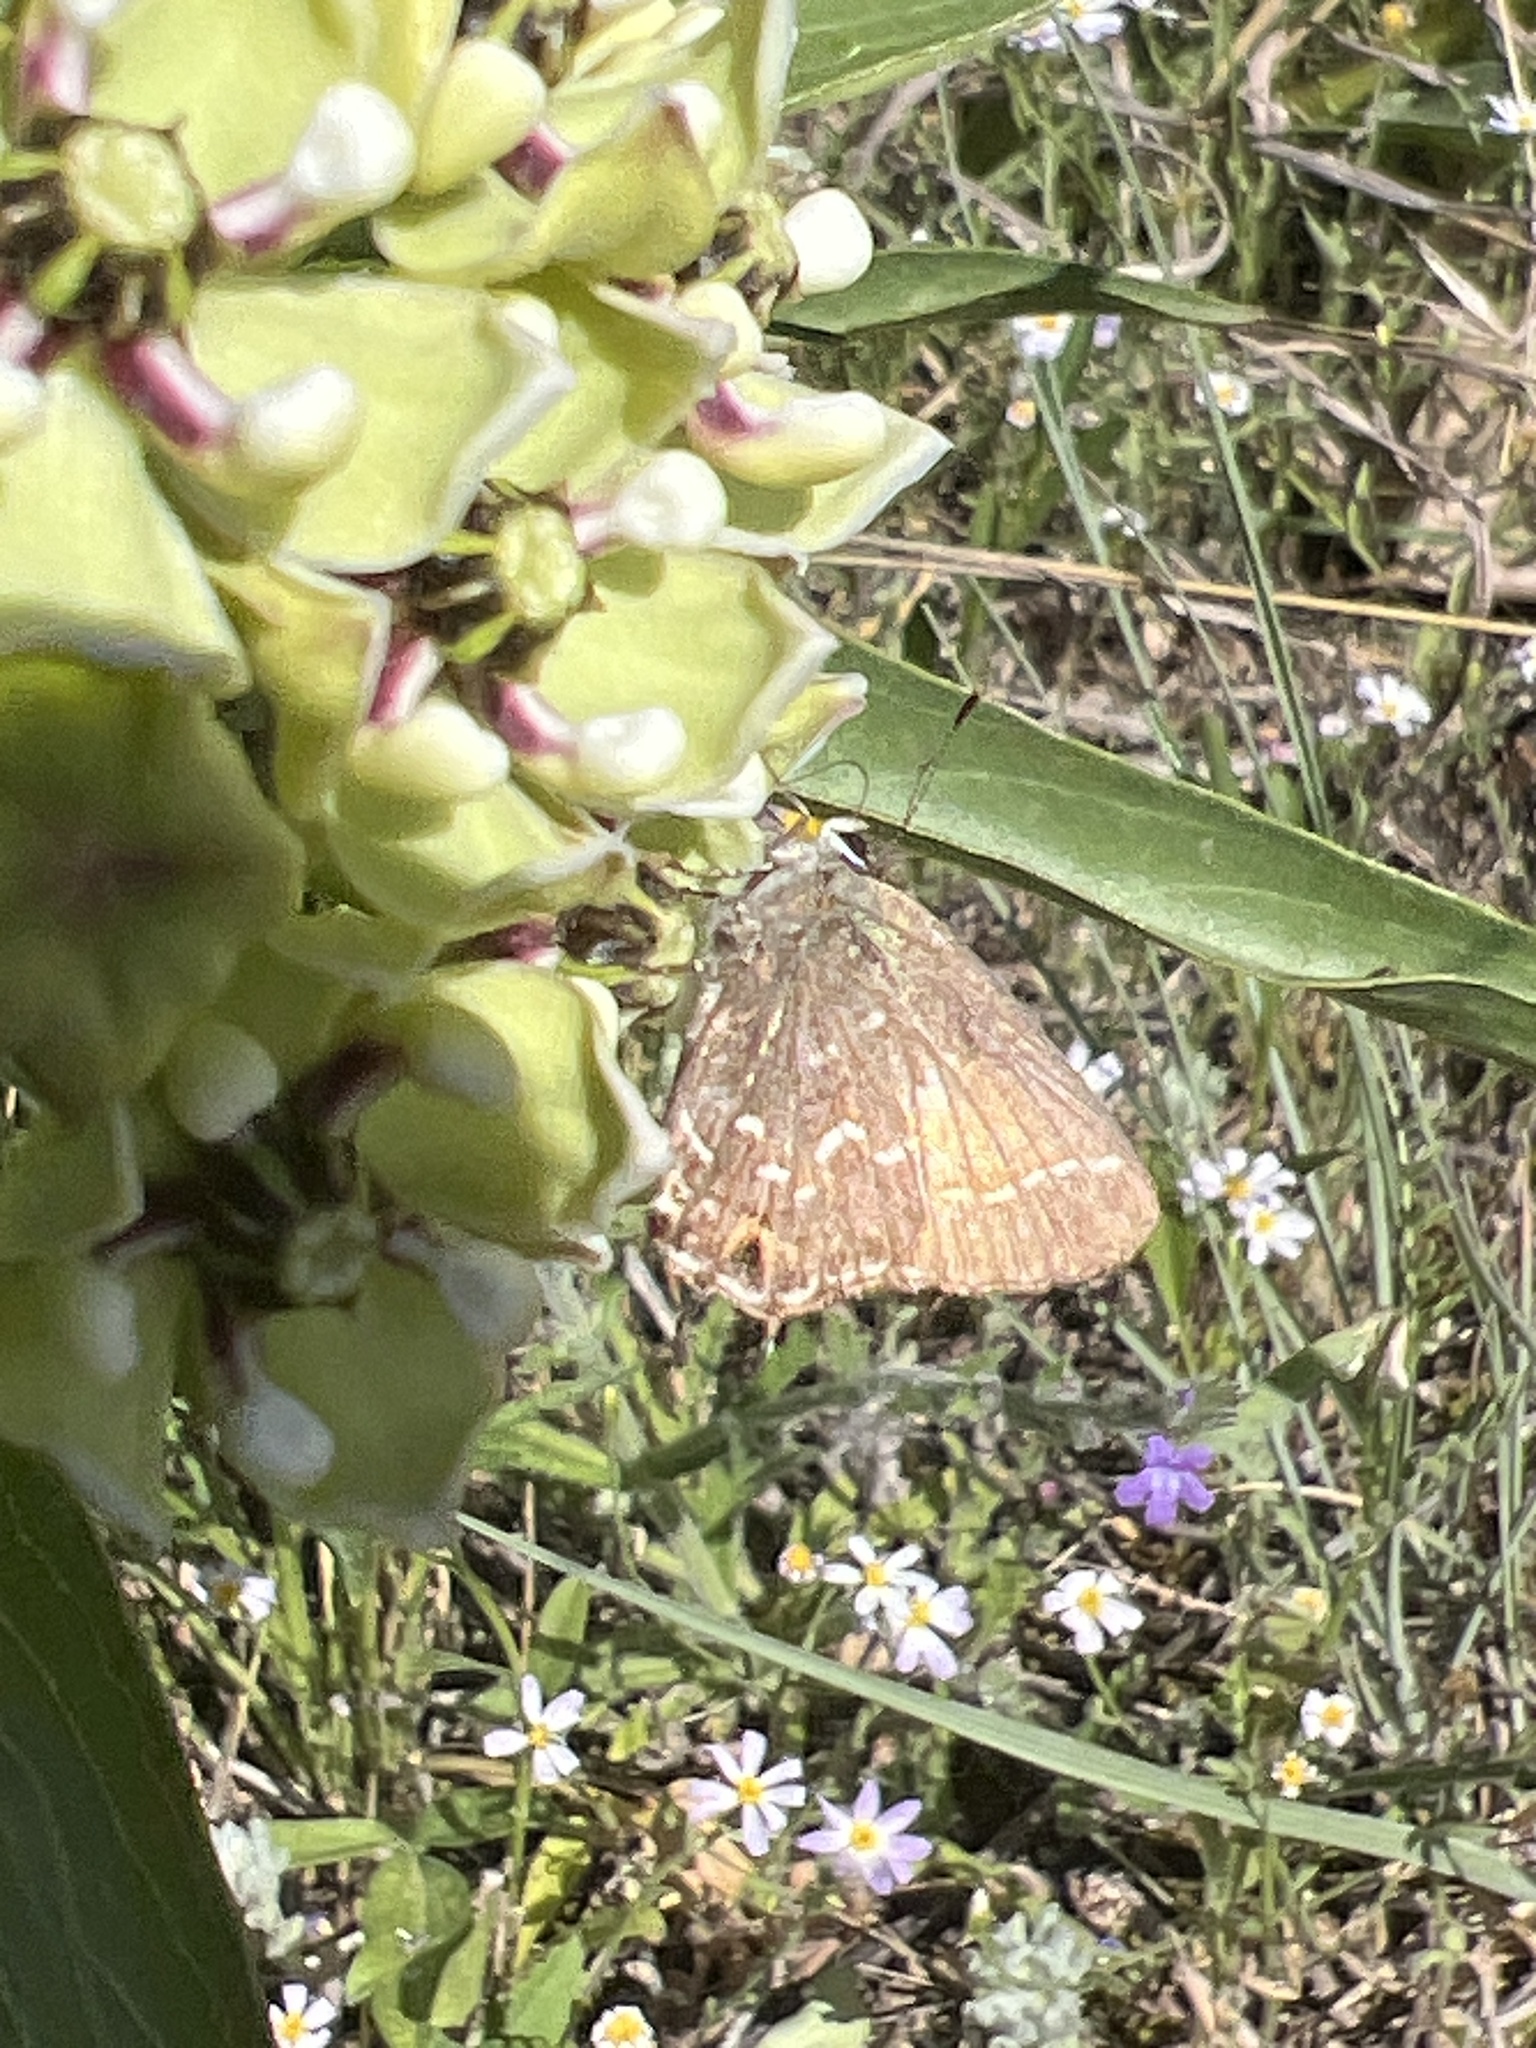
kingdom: Animalia
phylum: Arthropoda
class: Insecta
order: Lepidoptera
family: Lycaenidae
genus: Mitoura
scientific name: Mitoura gryneus
